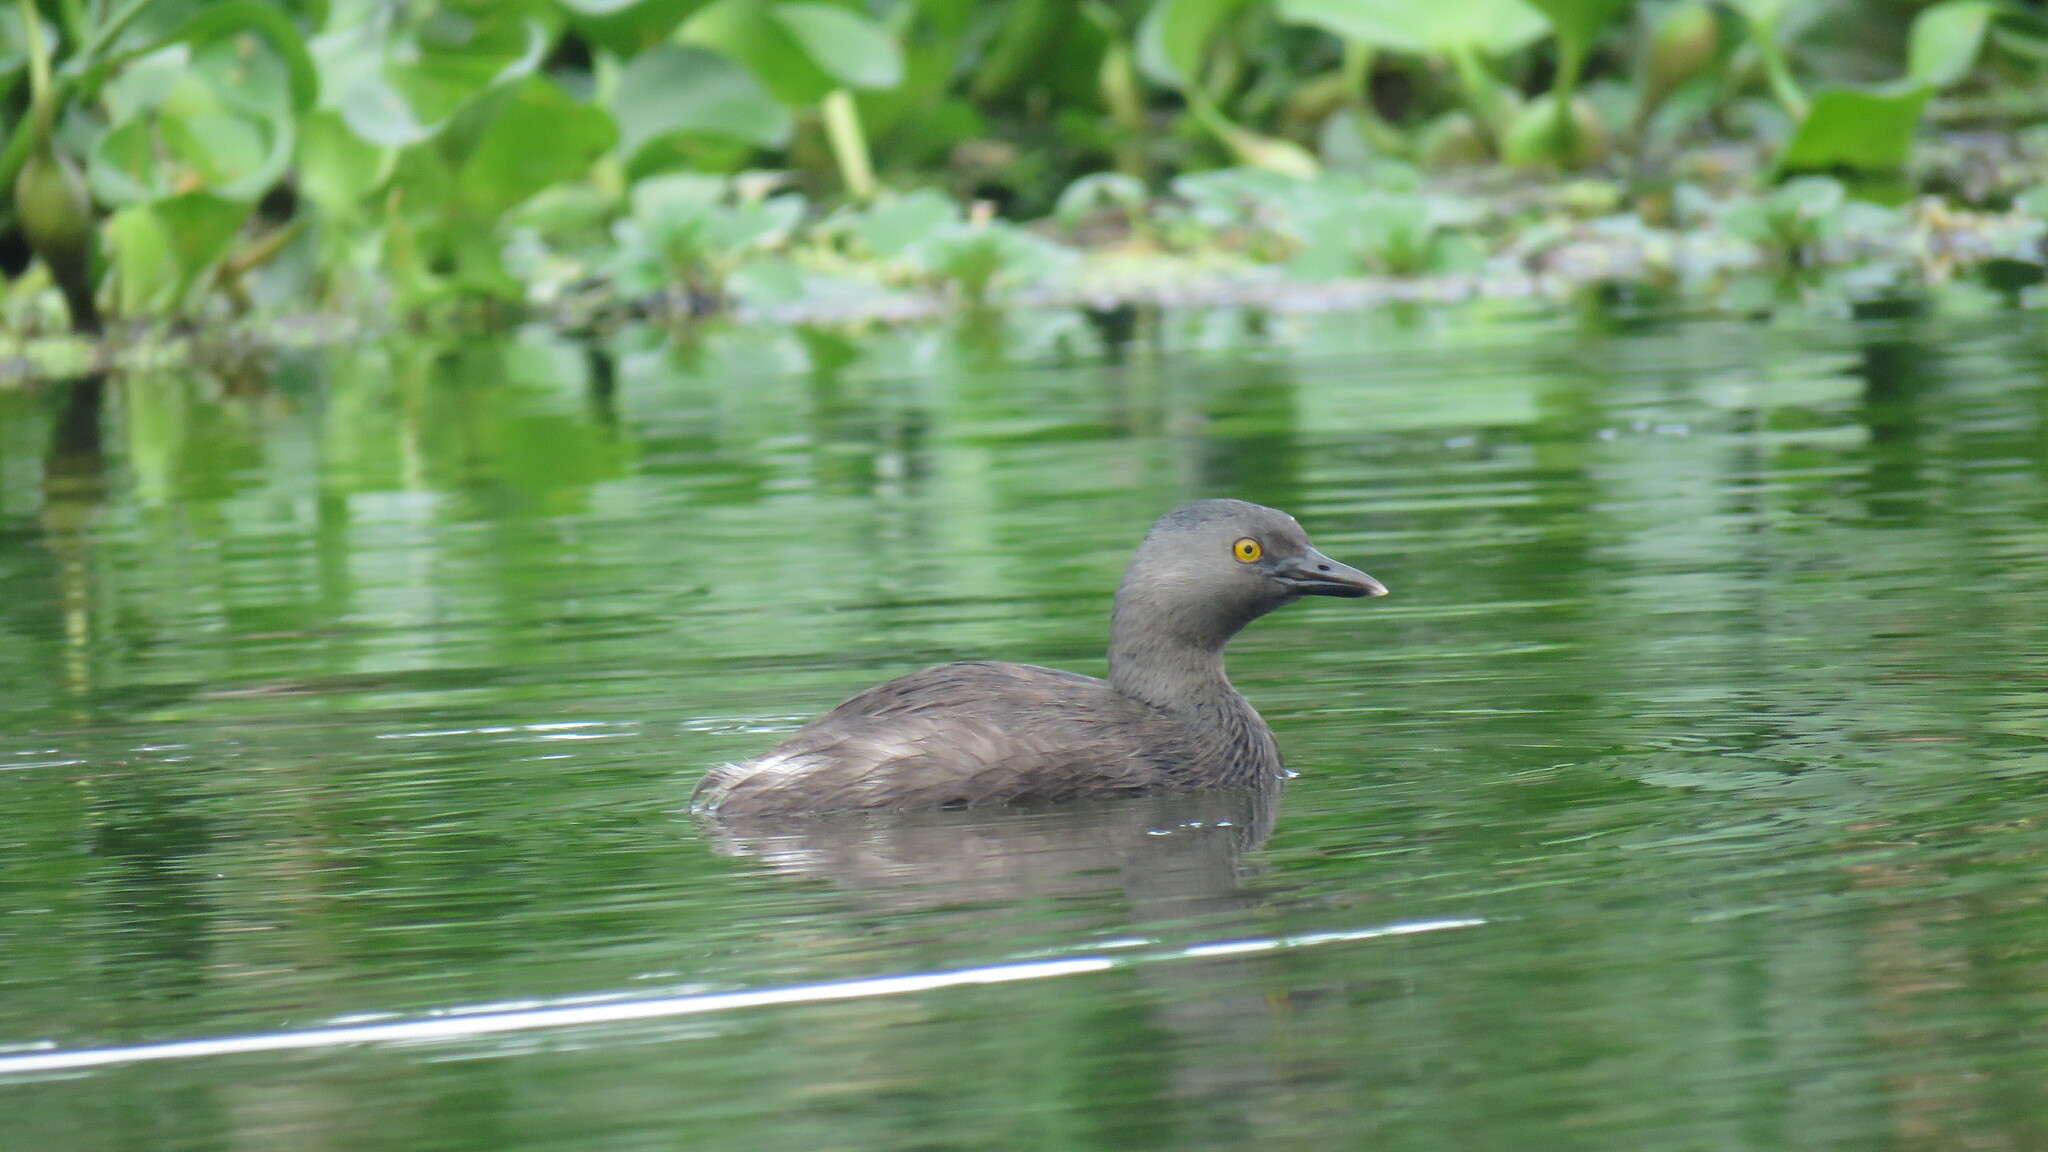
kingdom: Animalia
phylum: Chordata
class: Aves
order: Podicipediformes
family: Podicipedidae
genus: Tachybaptus
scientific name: Tachybaptus dominicus
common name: Least grebe
